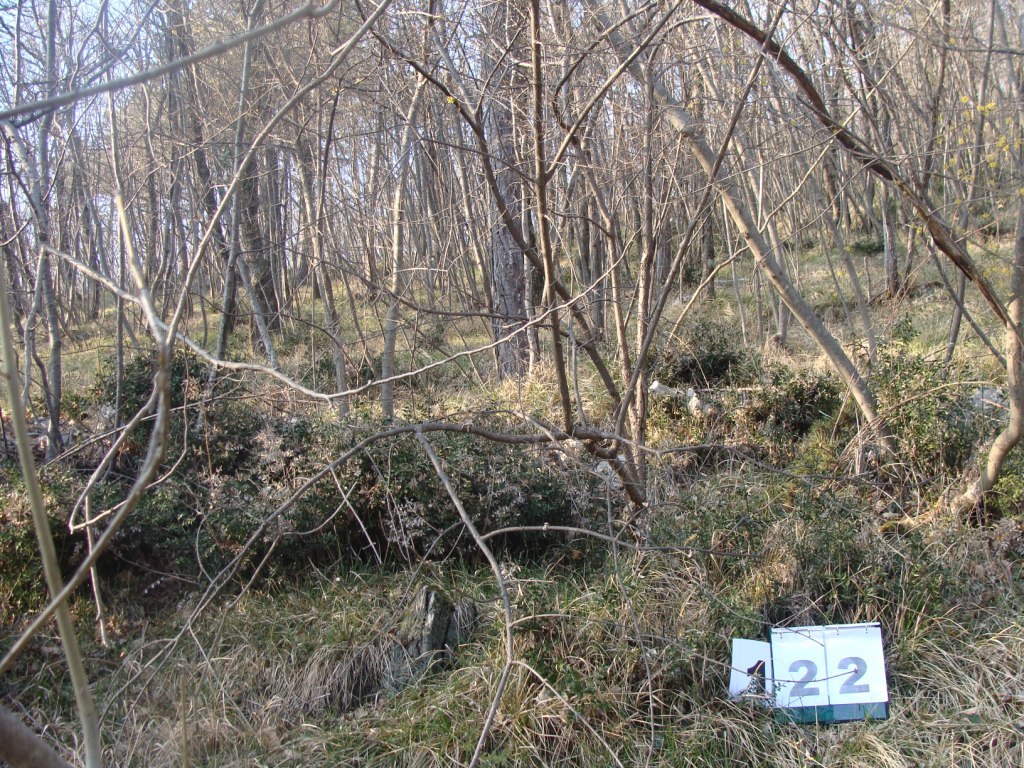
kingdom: Plantae
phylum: Tracheophyta
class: Magnoliopsida
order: Cornales
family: Cornaceae
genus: Cornus
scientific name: Cornus mas
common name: Cornelian-cherry
